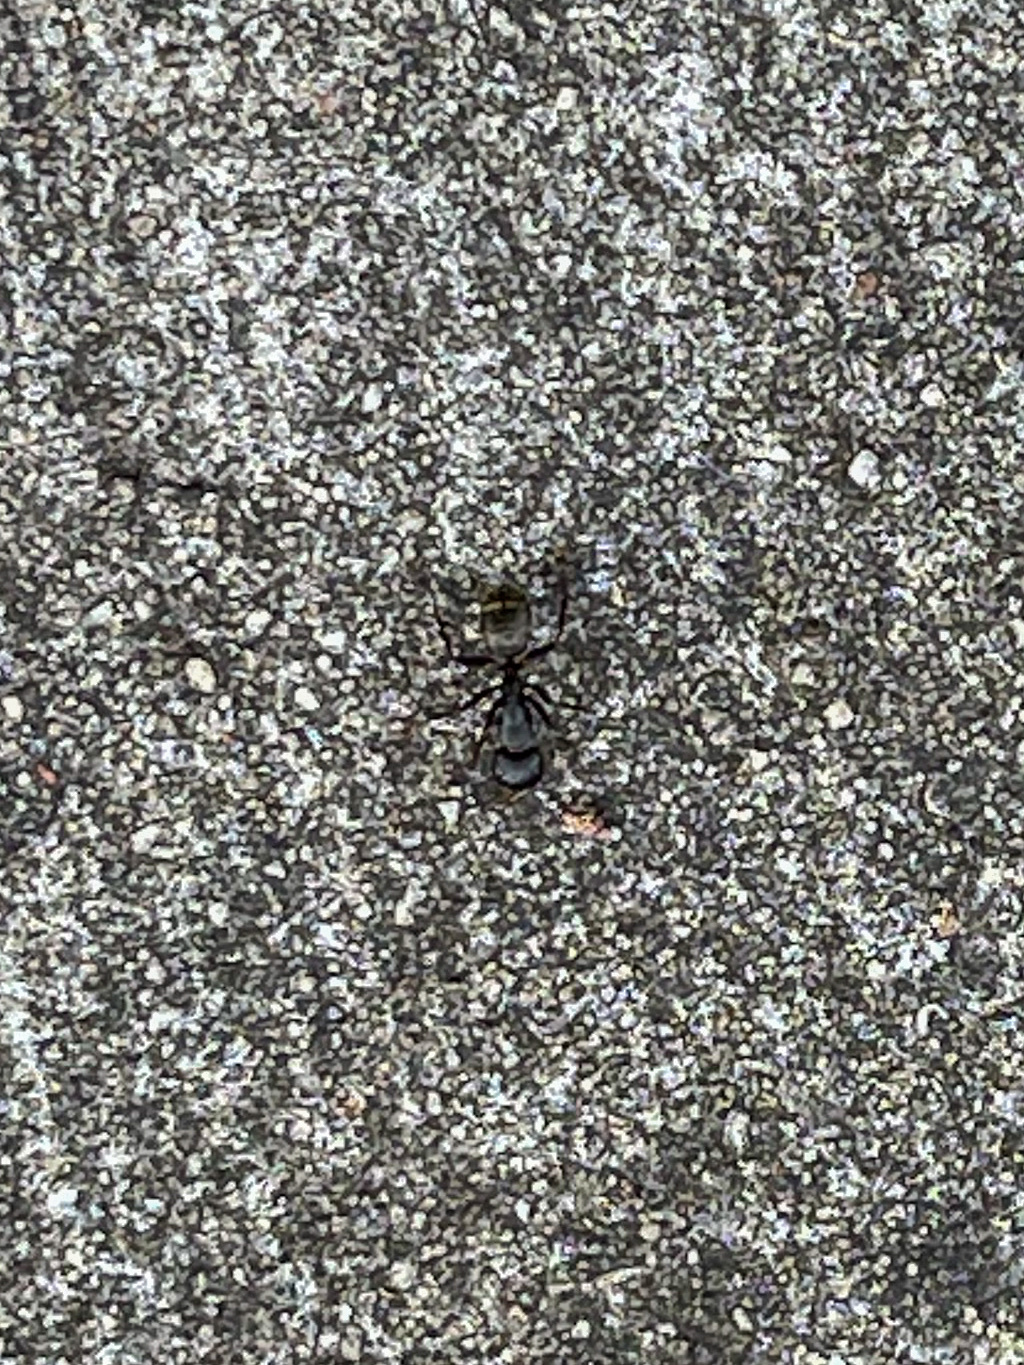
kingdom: Animalia
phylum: Arthropoda
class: Insecta
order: Hymenoptera
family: Formicidae
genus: Camponotus
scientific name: Camponotus pennsylvanicus
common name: Black carpenter ant
